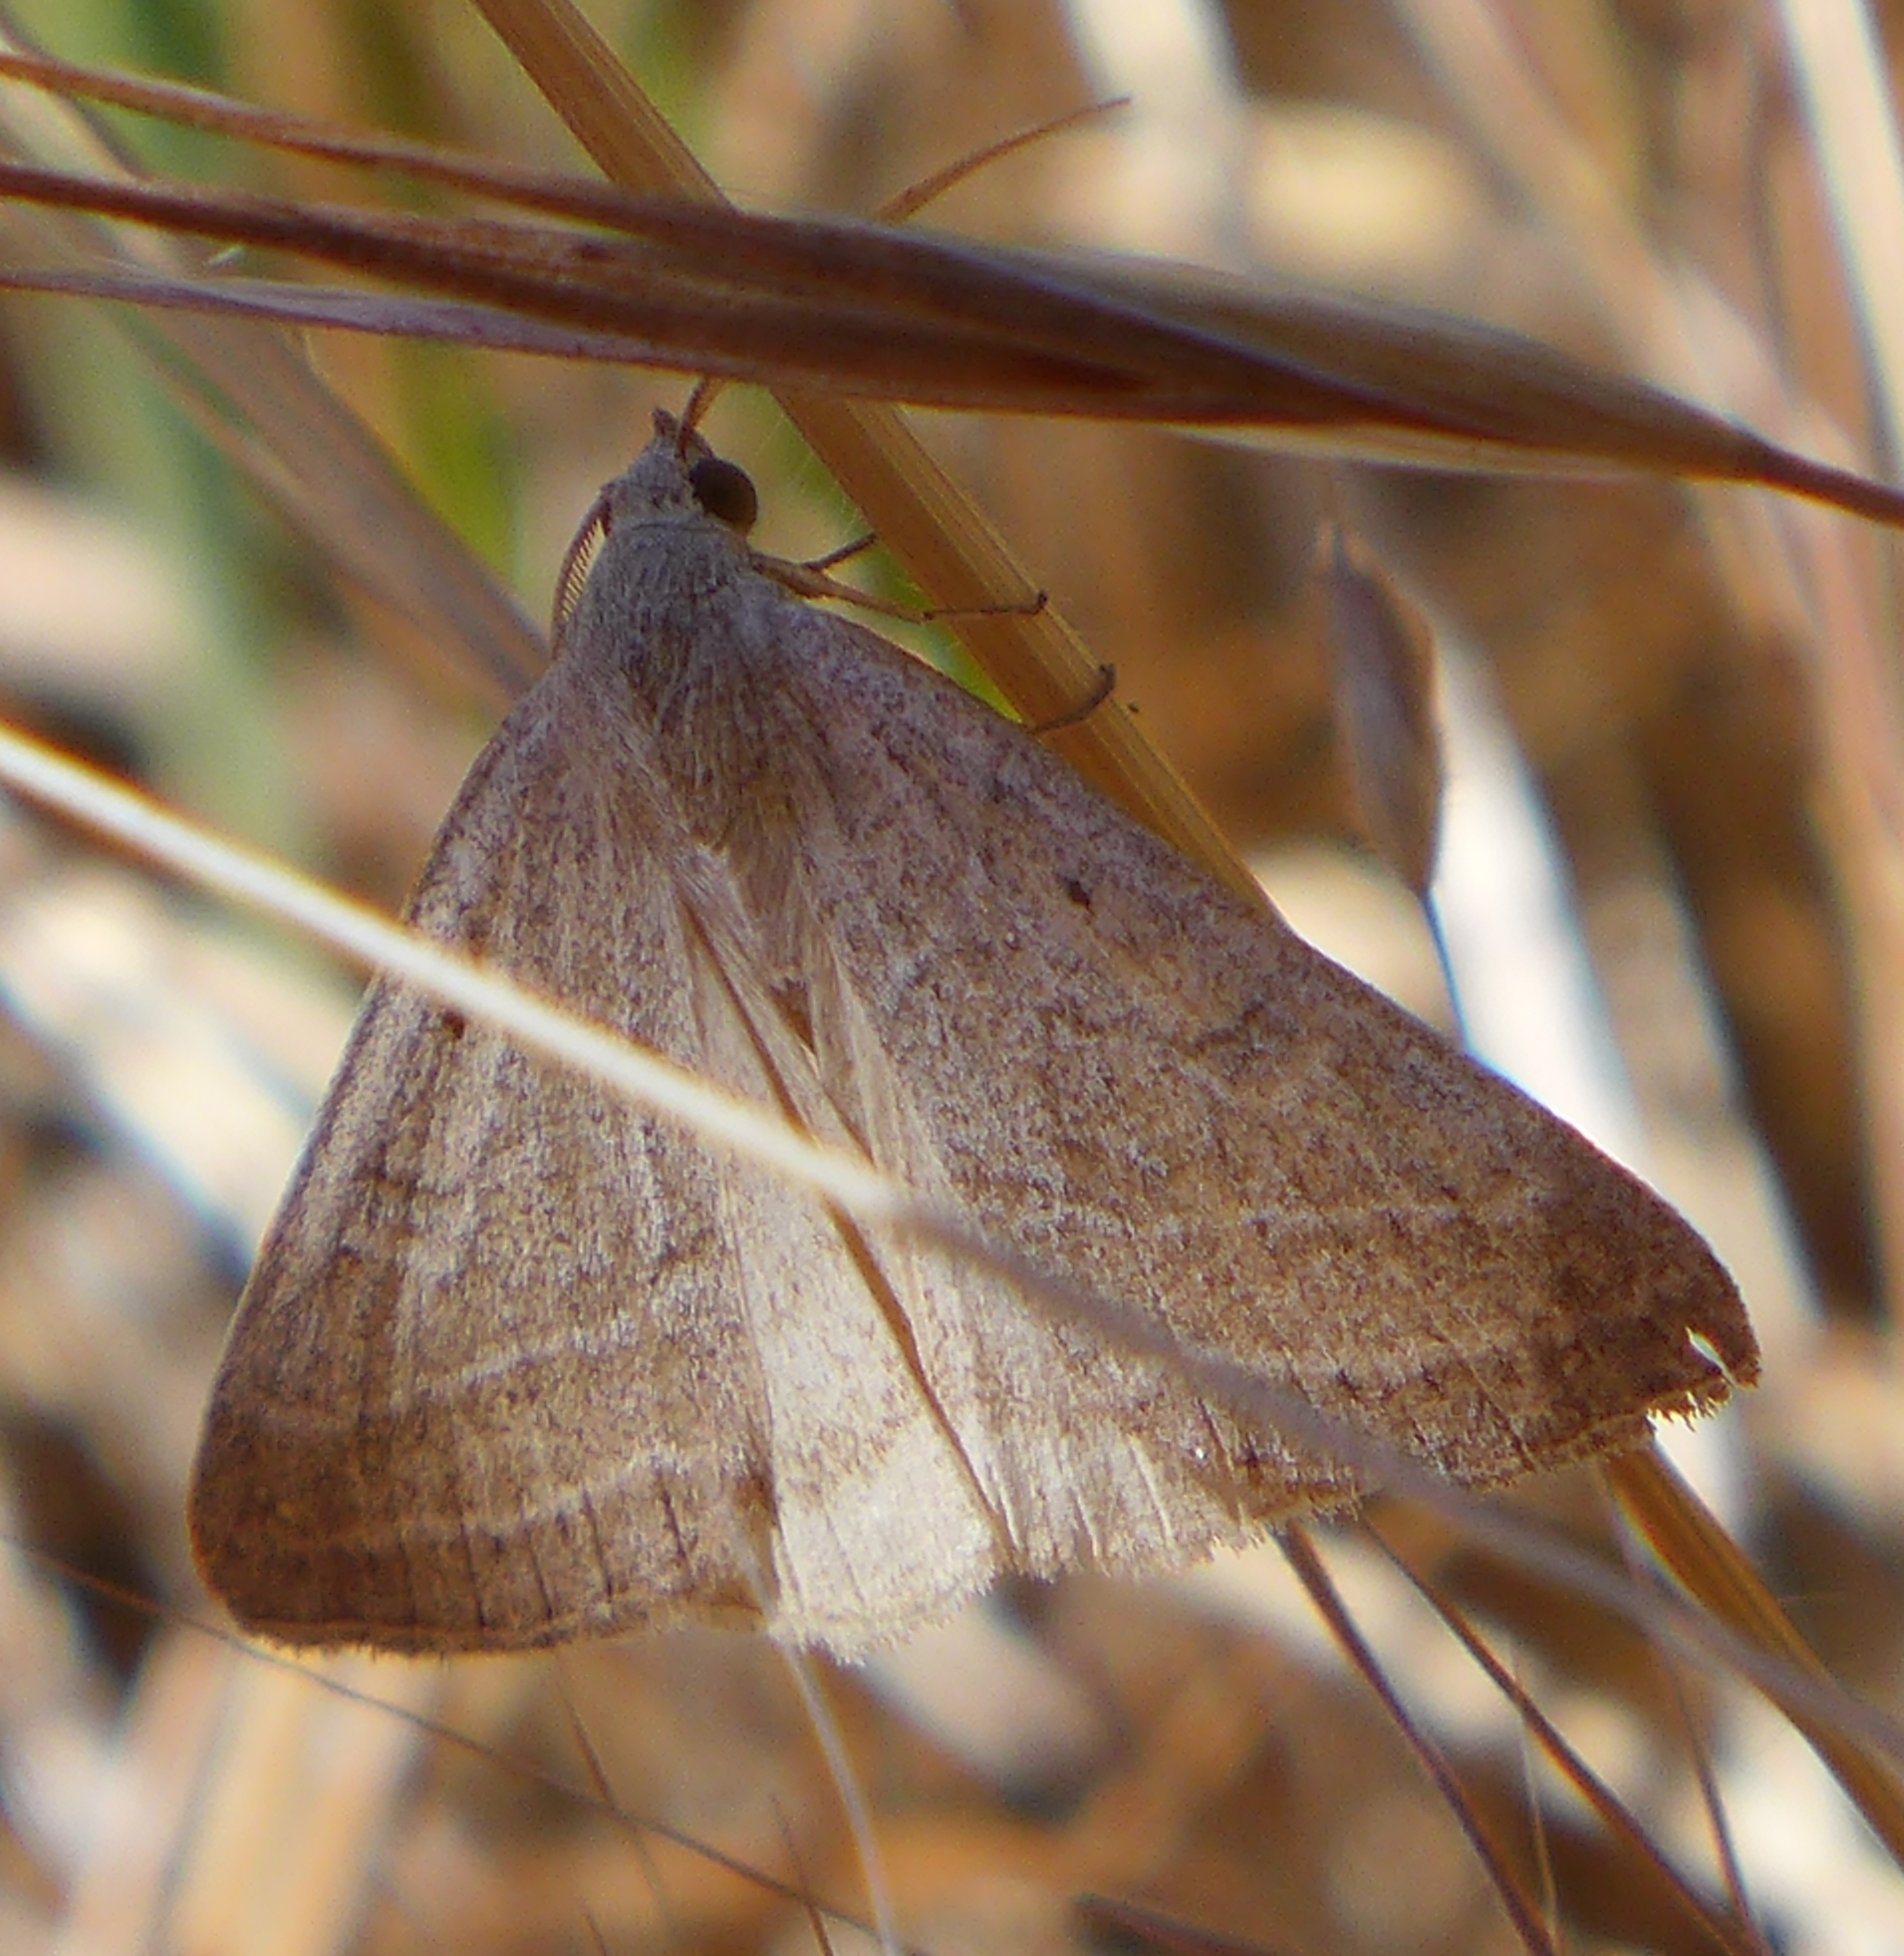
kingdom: Animalia
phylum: Arthropoda
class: Insecta
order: Lepidoptera
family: Erebidae
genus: Caenurgia
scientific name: Caenurgia togataria
